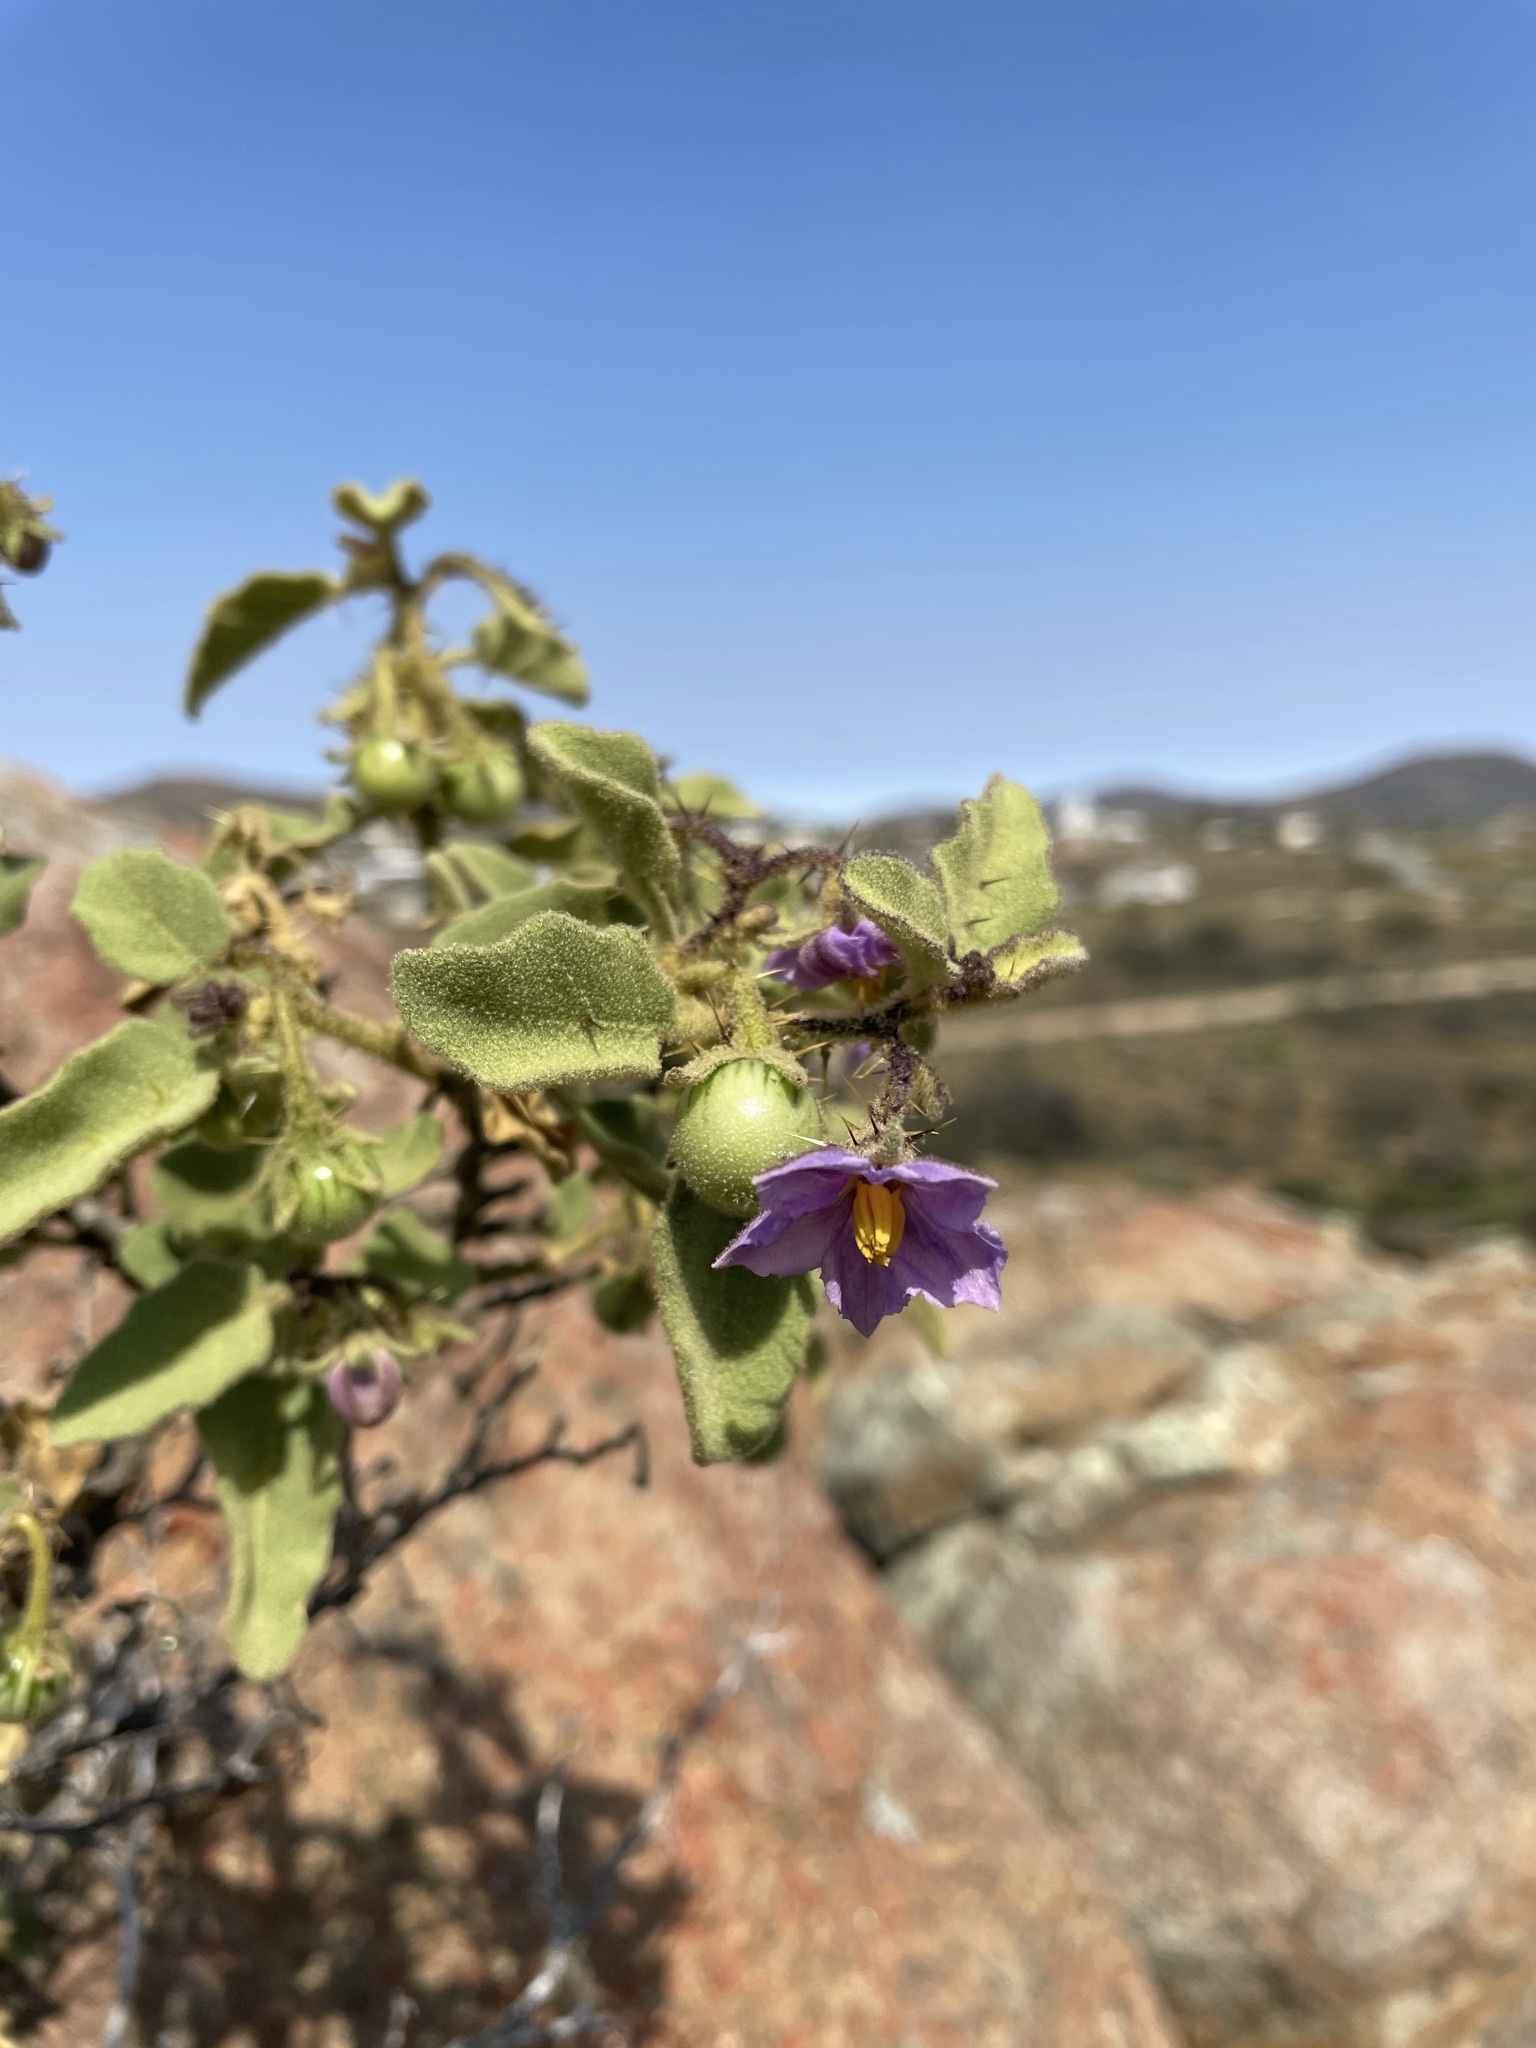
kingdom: Plantae
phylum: Tracheophyta
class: Magnoliopsida
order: Solanales
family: Solanaceae
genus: Solanum
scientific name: Solanum tomentosum
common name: Wild aubergine
